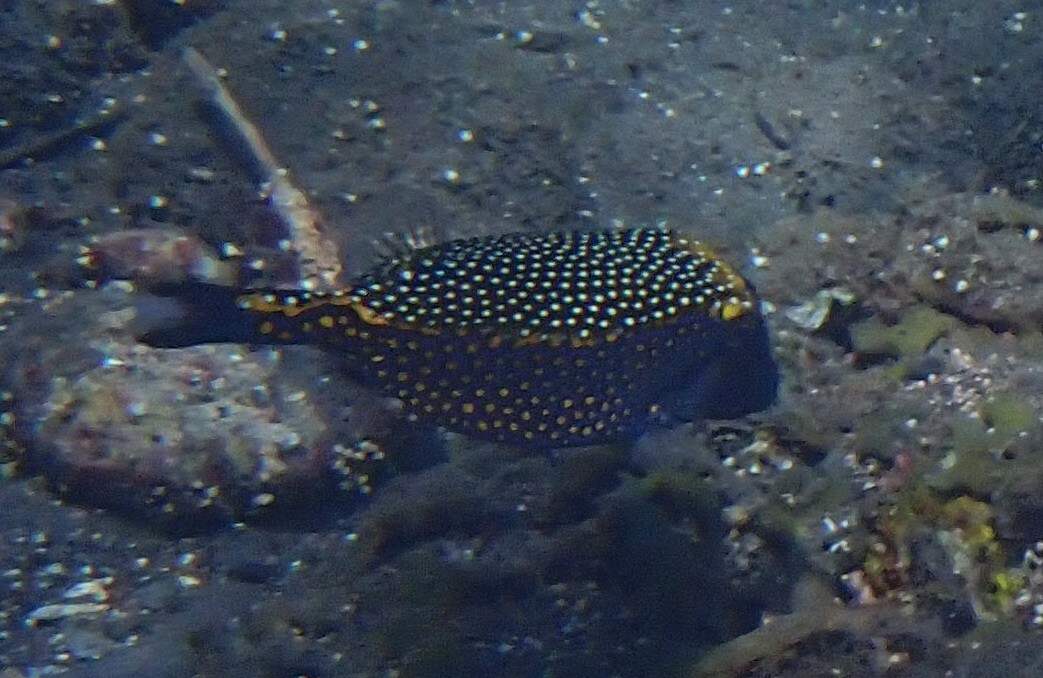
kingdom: Animalia
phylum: Chordata
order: Tetraodontiformes
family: Ostraciidae
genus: Ostracion
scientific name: Ostracion meleagris
